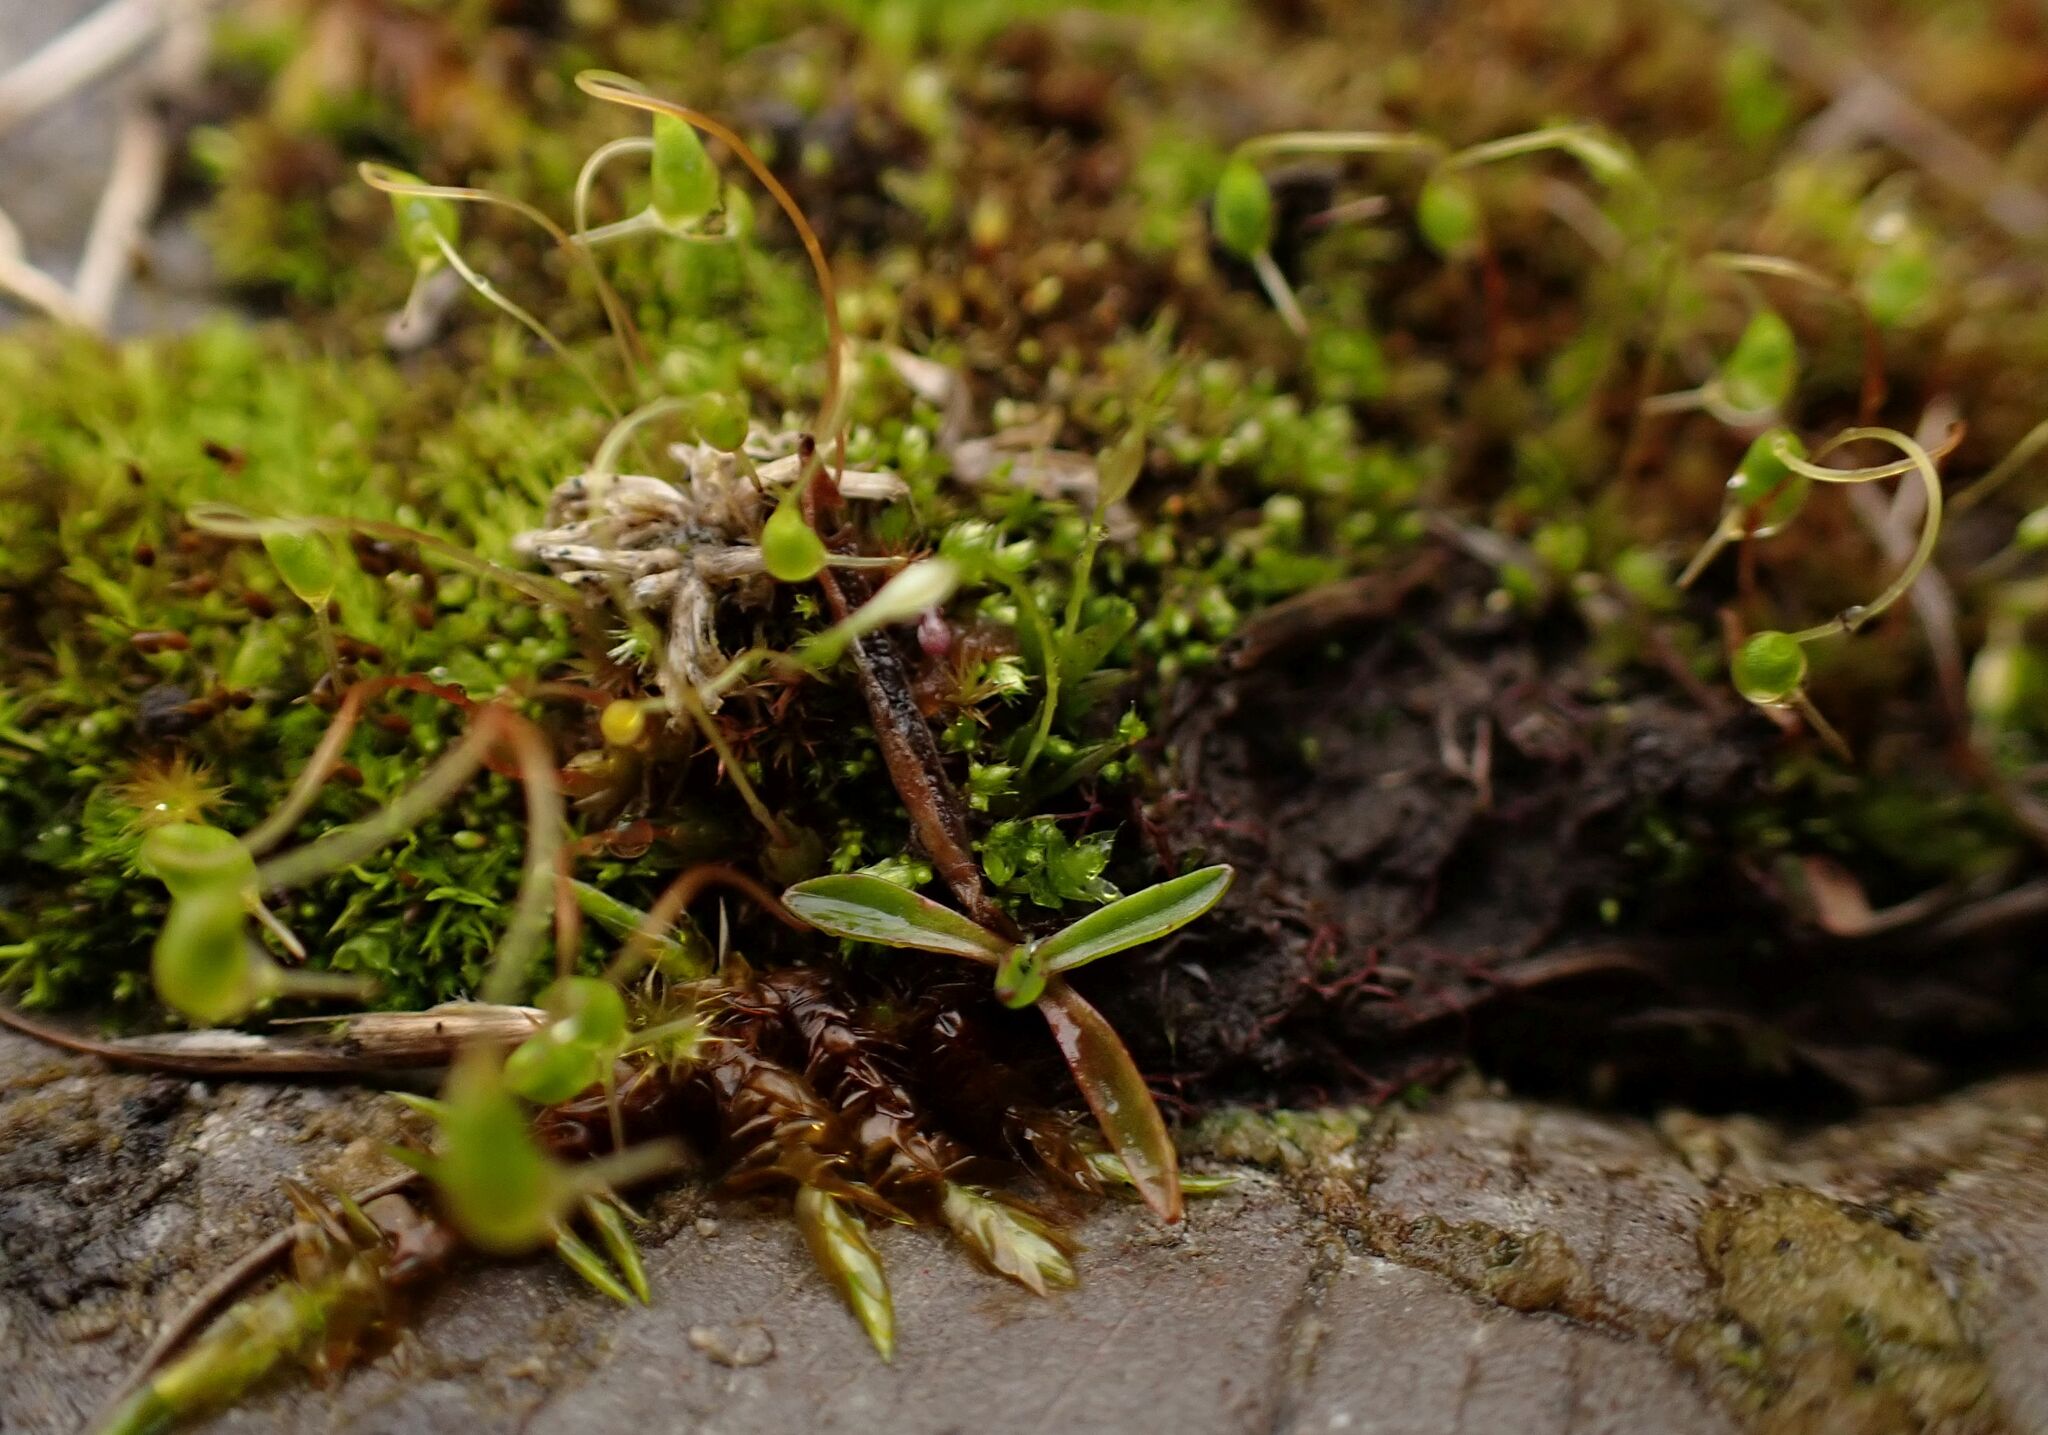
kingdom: Plantae
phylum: Bryophyta
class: Bryopsida
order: Funariales
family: Funariaceae
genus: Funaria
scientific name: Funaria hygrometrica
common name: Common cord moss
